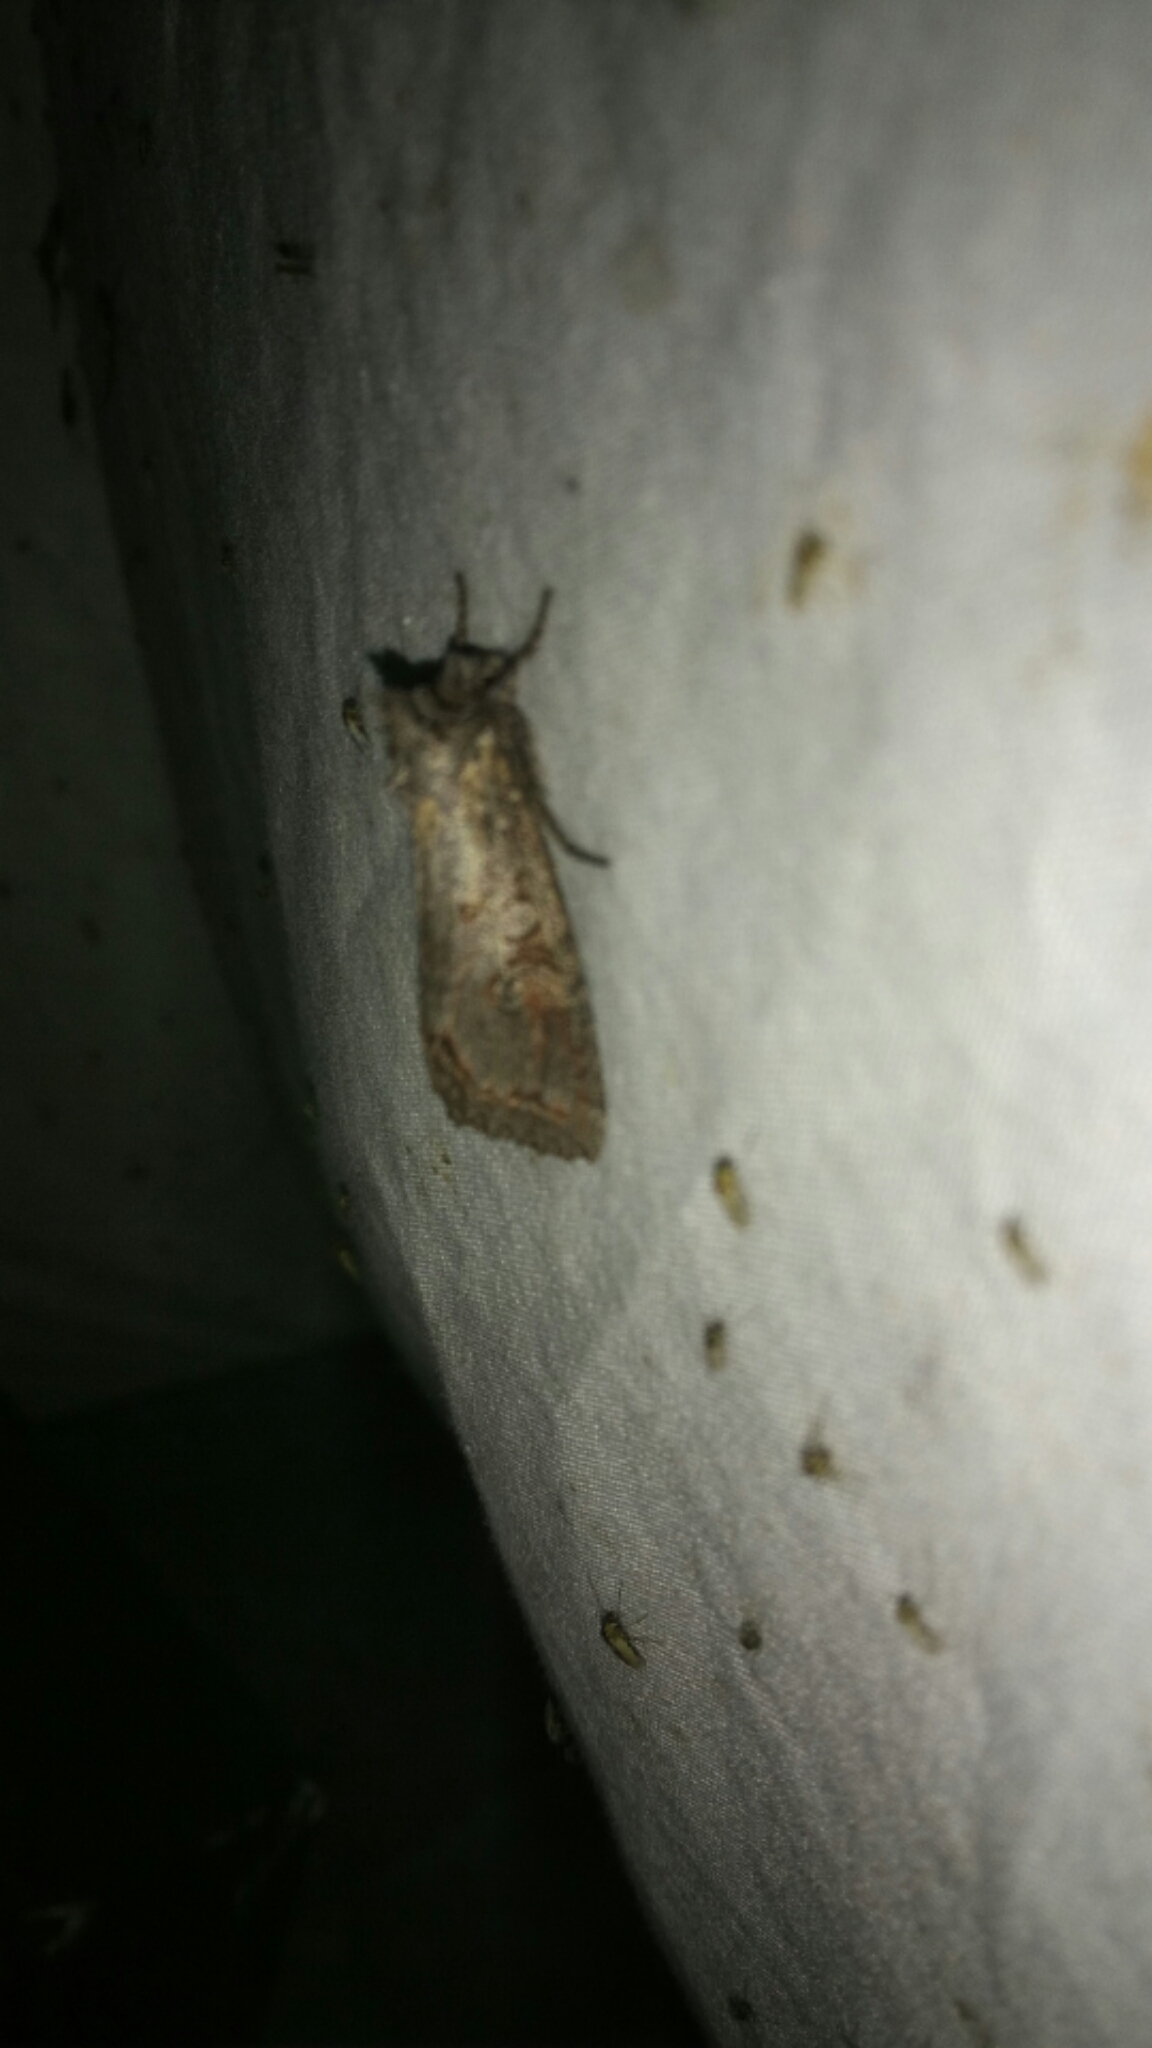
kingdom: Animalia
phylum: Arthropoda
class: Insecta
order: Lepidoptera
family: Noctuidae
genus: Polia
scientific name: Polia purpurissata
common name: Purple arches moth
